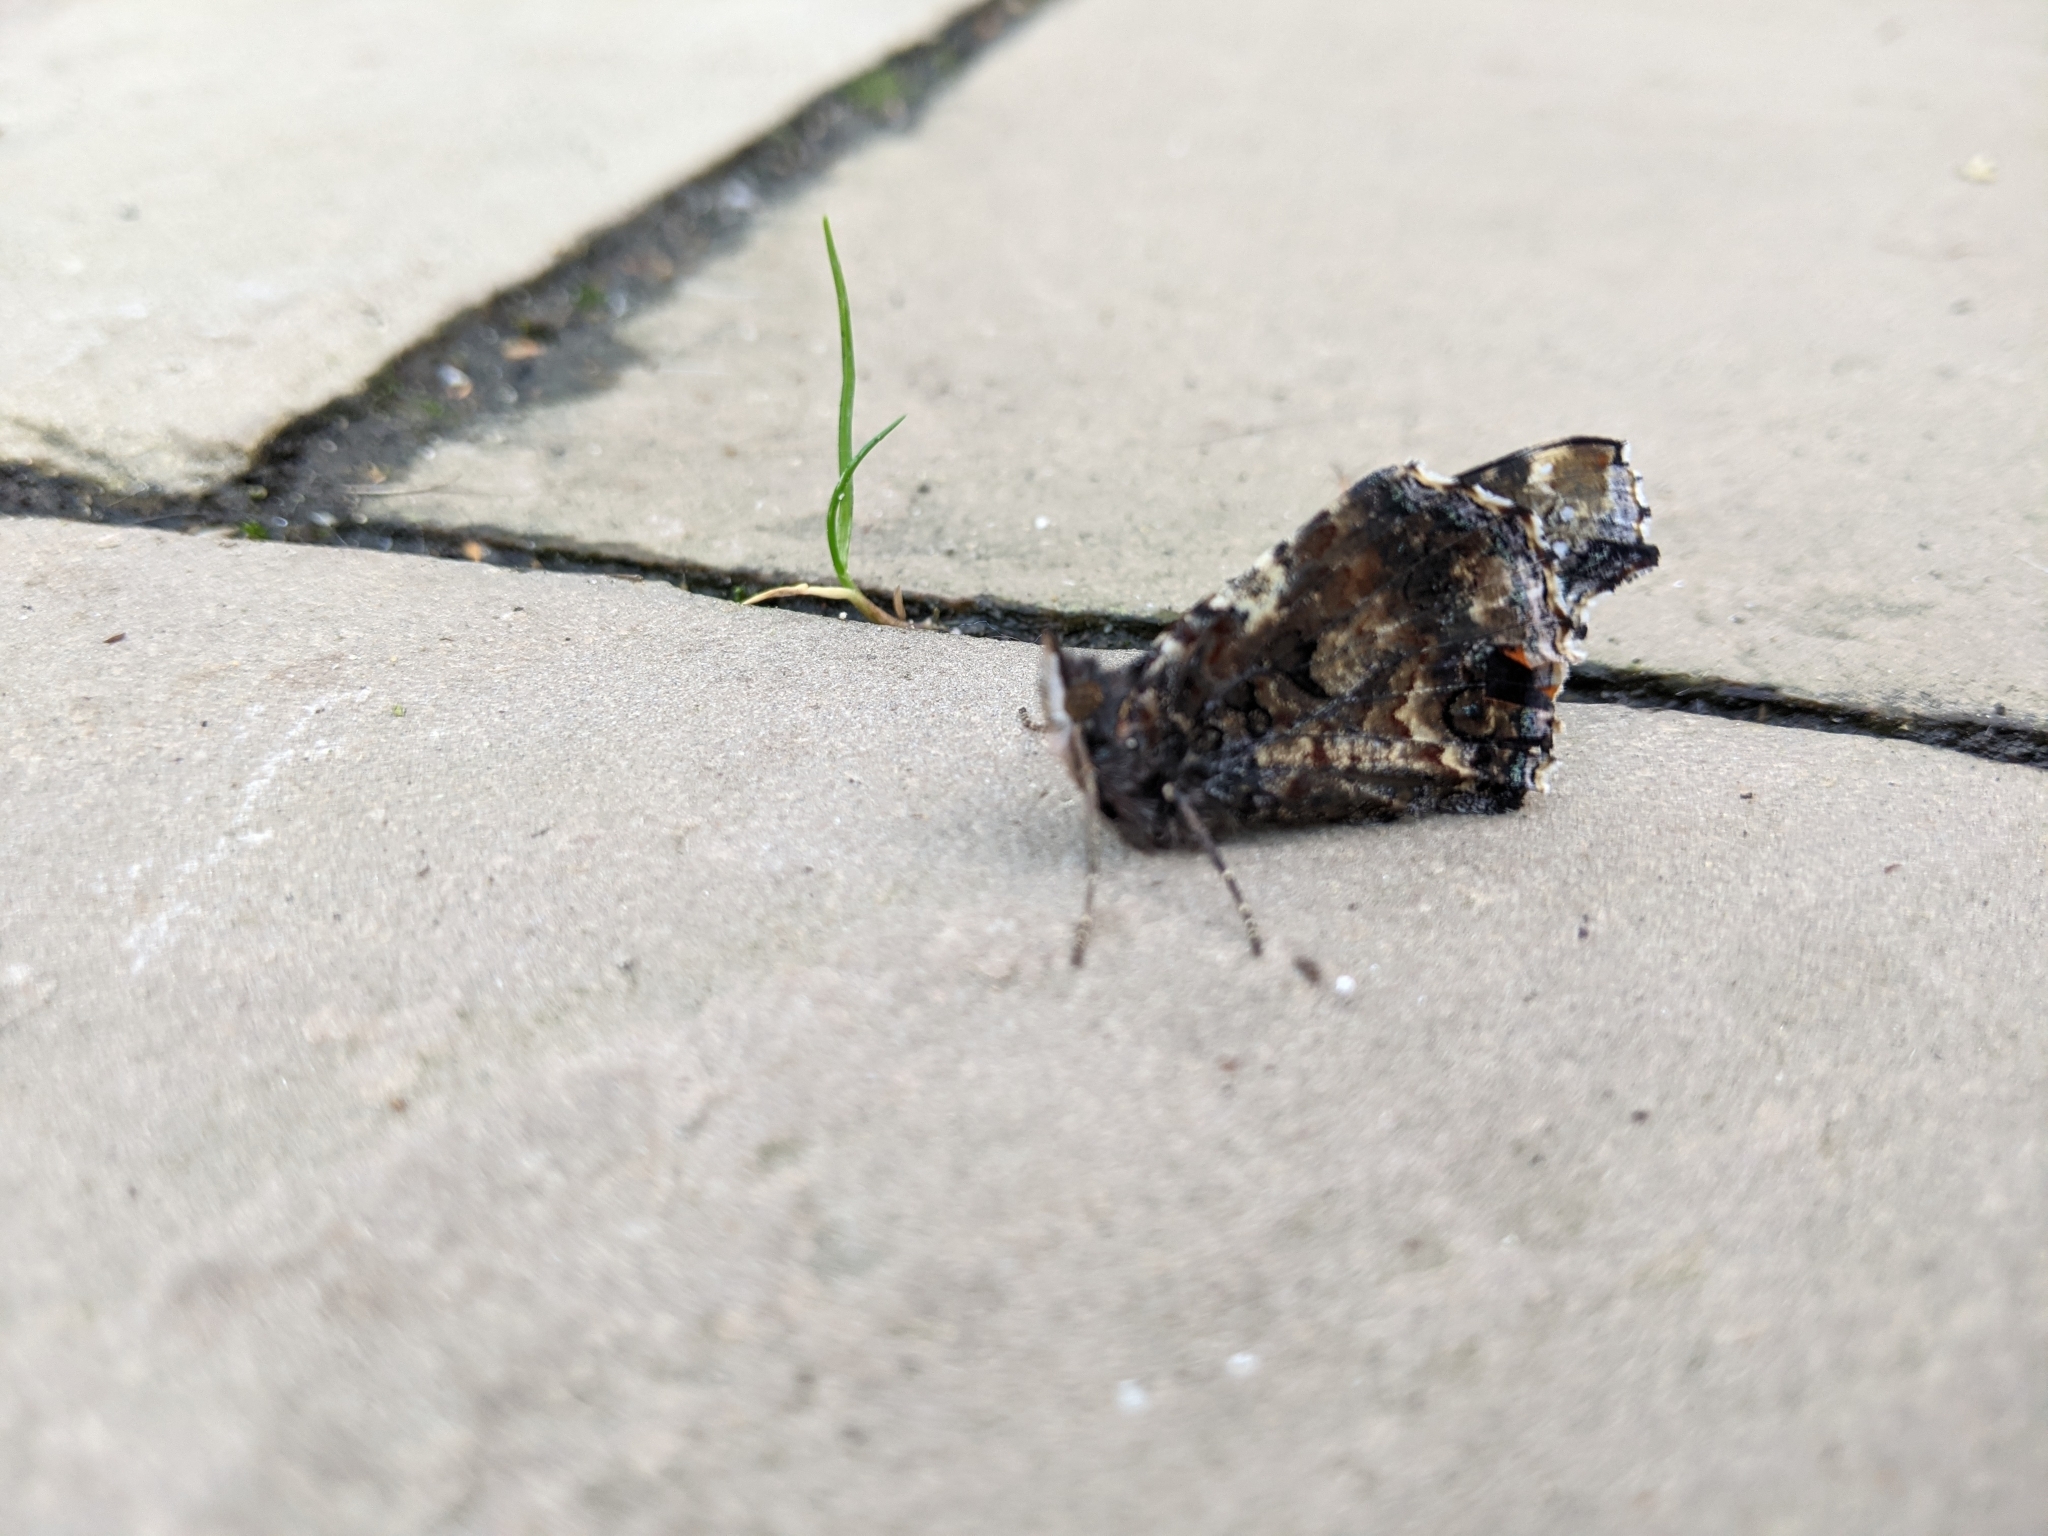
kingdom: Animalia
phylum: Arthropoda
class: Insecta
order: Lepidoptera
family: Nymphalidae
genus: Vanessa
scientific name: Vanessa atalanta
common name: Red admiral
